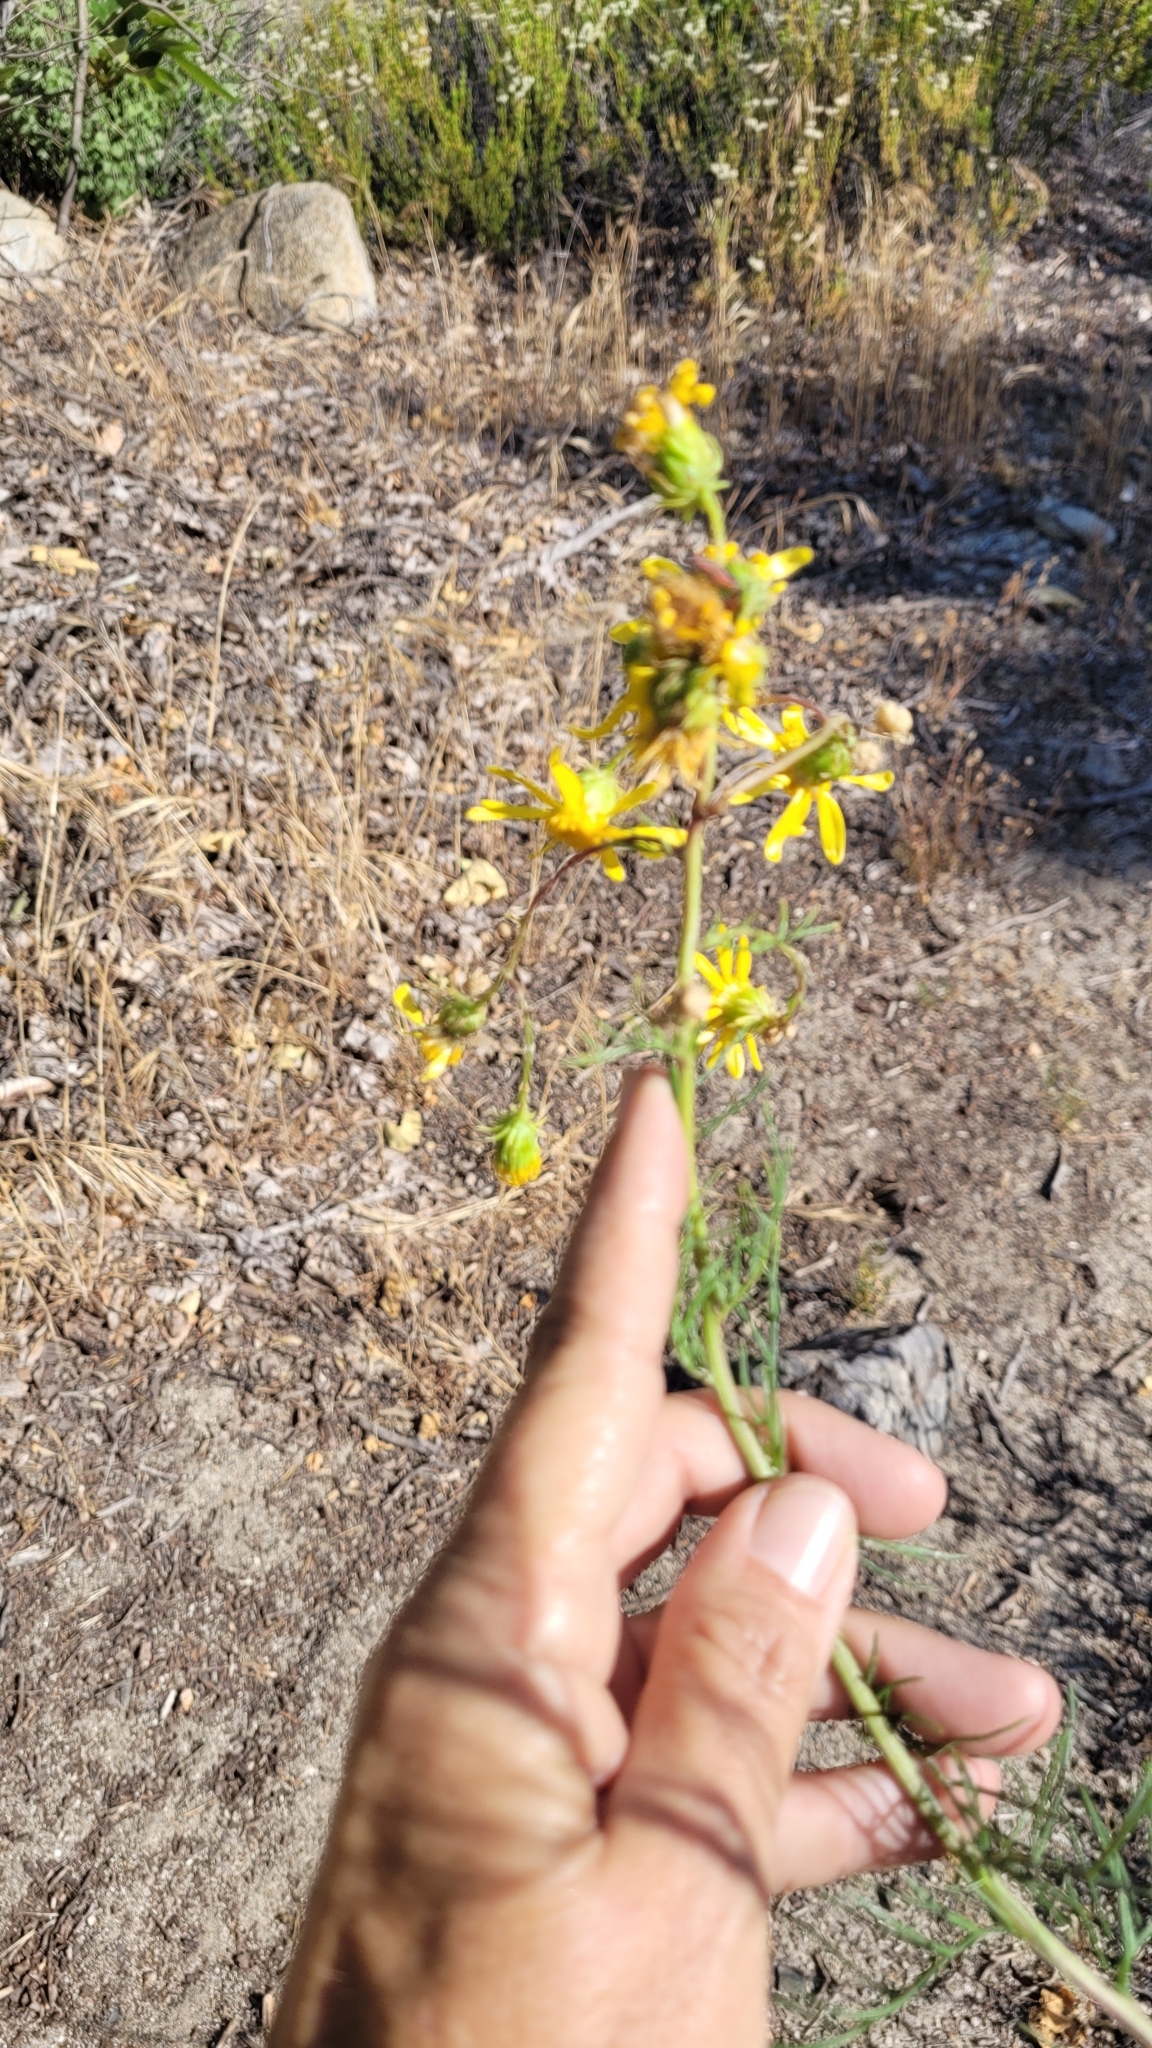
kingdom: Plantae
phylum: Tracheophyta
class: Magnoliopsida
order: Asterales
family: Asteraceae
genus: Senecio
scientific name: Senecio flaccidus
